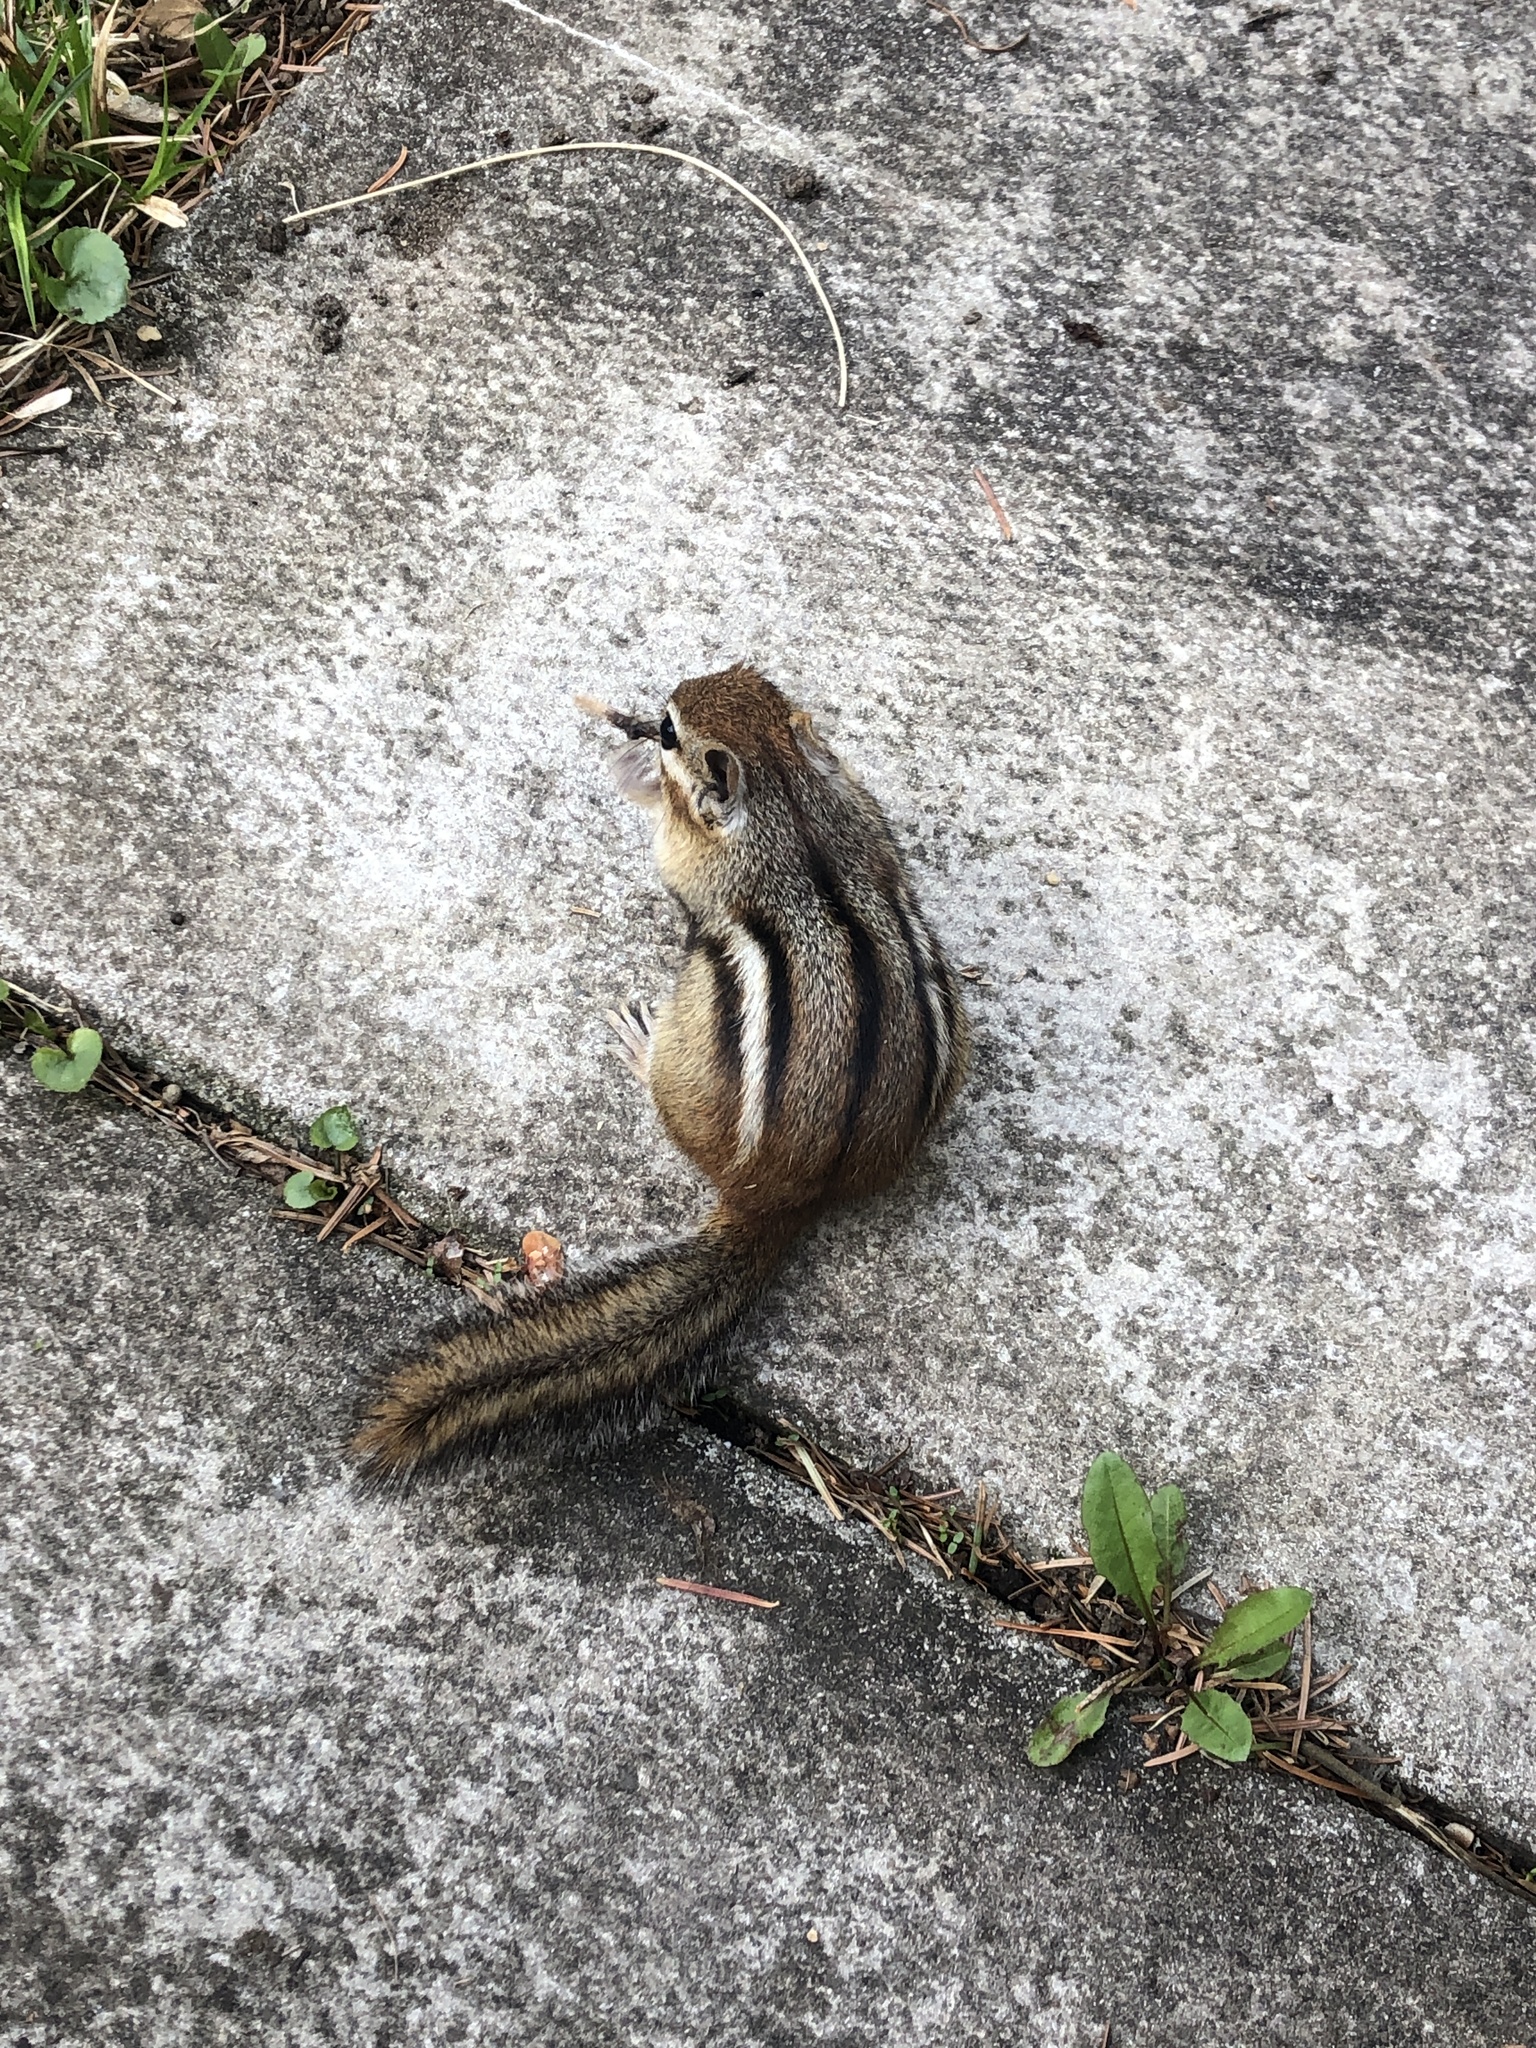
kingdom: Animalia
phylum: Chordata
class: Mammalia
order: Rodentia
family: Sciuridae
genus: Tamias
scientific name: Tamias striatus
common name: Eastern chipmunk
